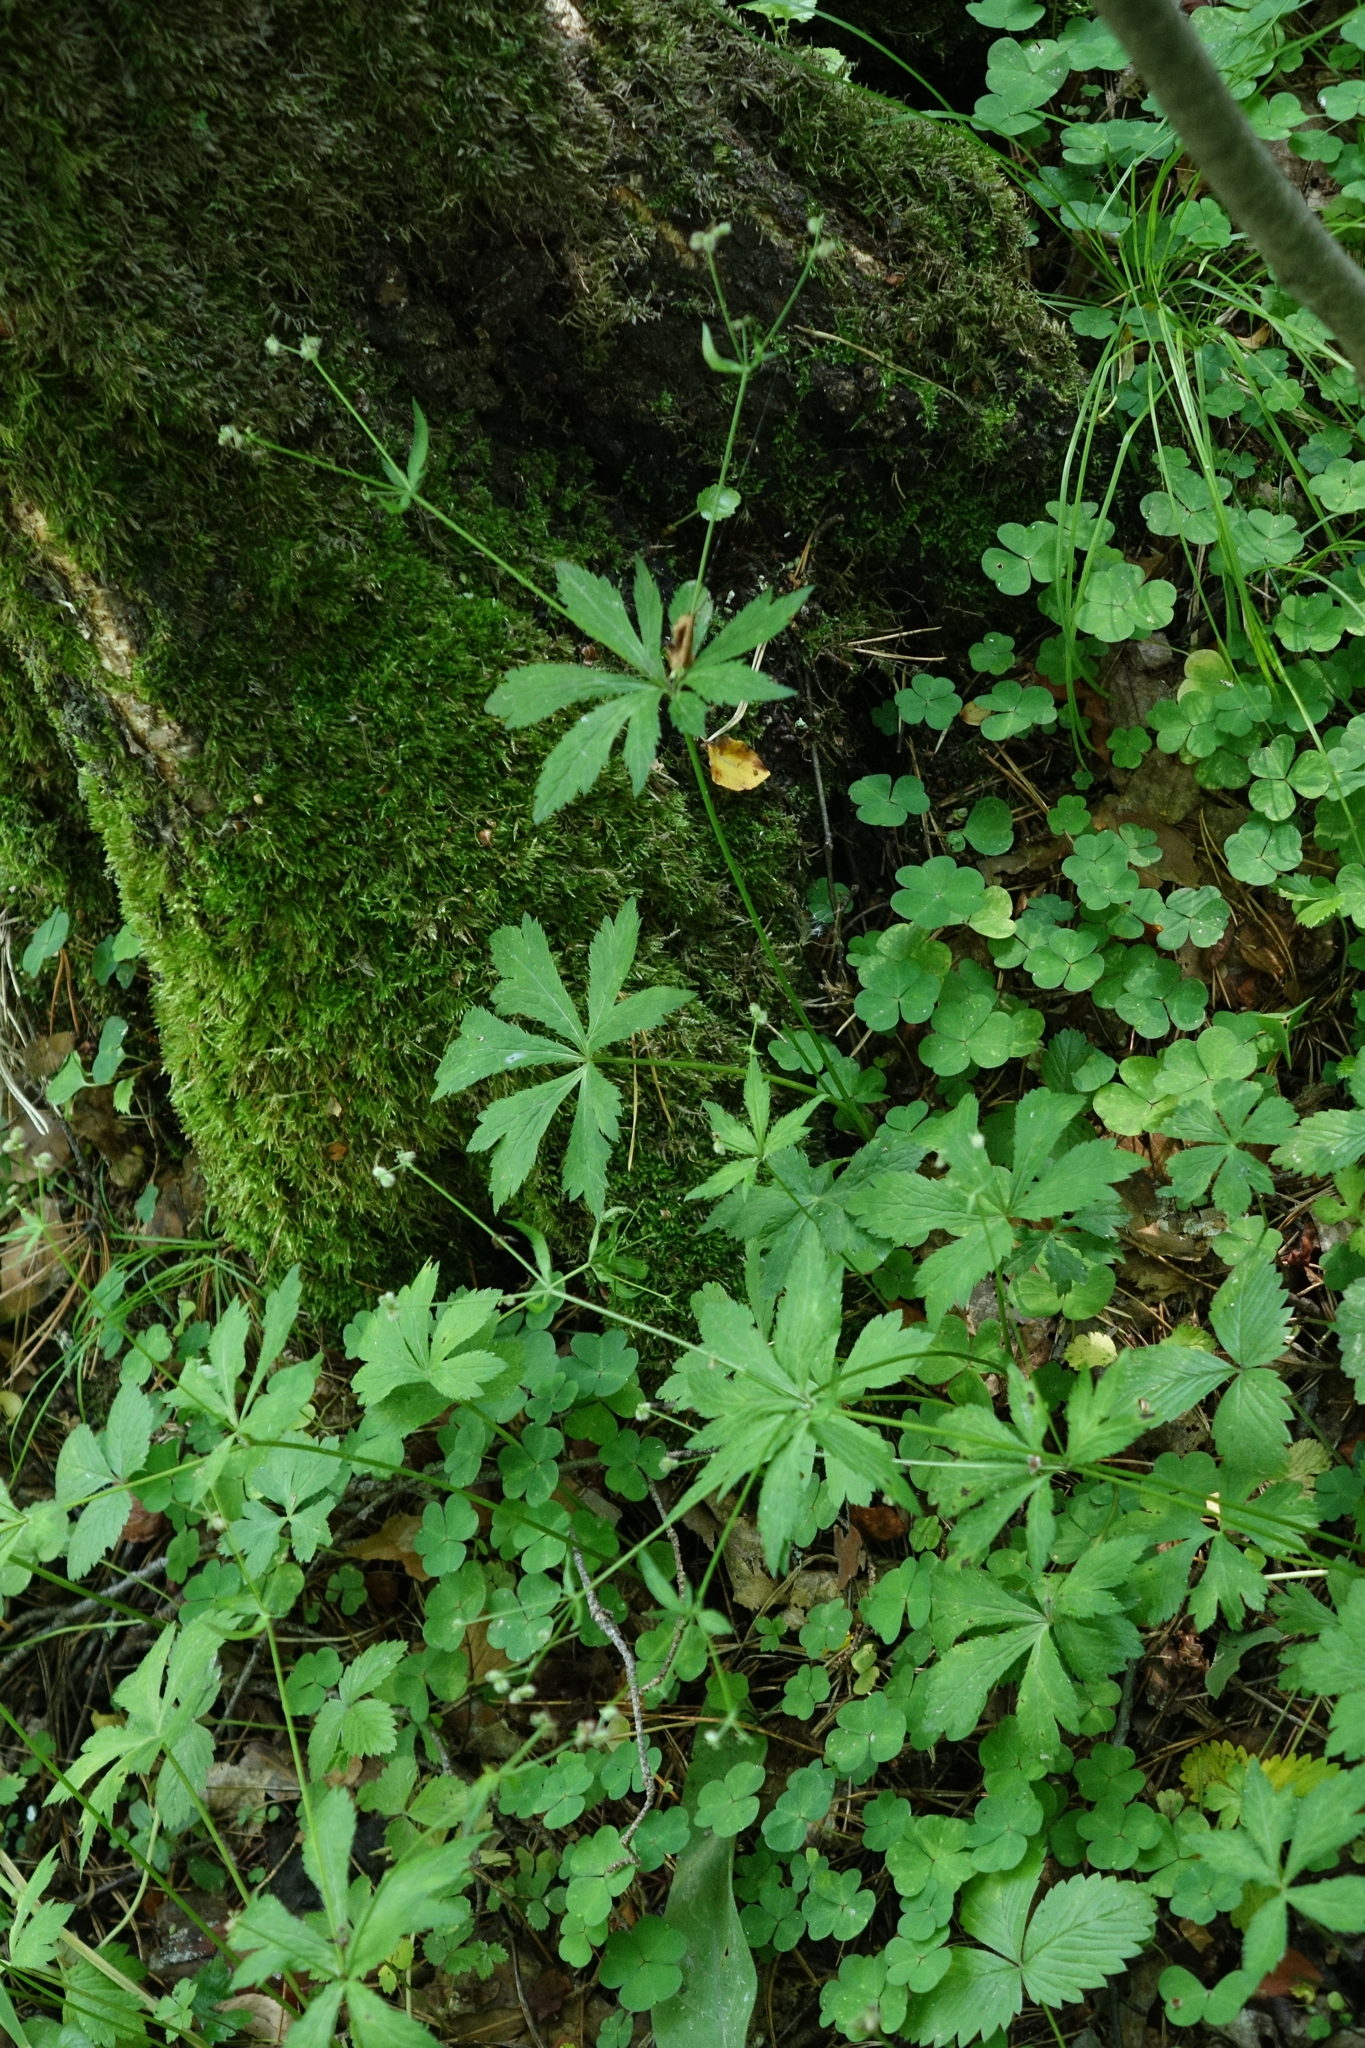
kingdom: Plantae
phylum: Tracheophyta
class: Magnoliopsida
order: Apiales
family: Apiaceae
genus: Sanicula
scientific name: Sanicula europaea
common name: Sanicle
